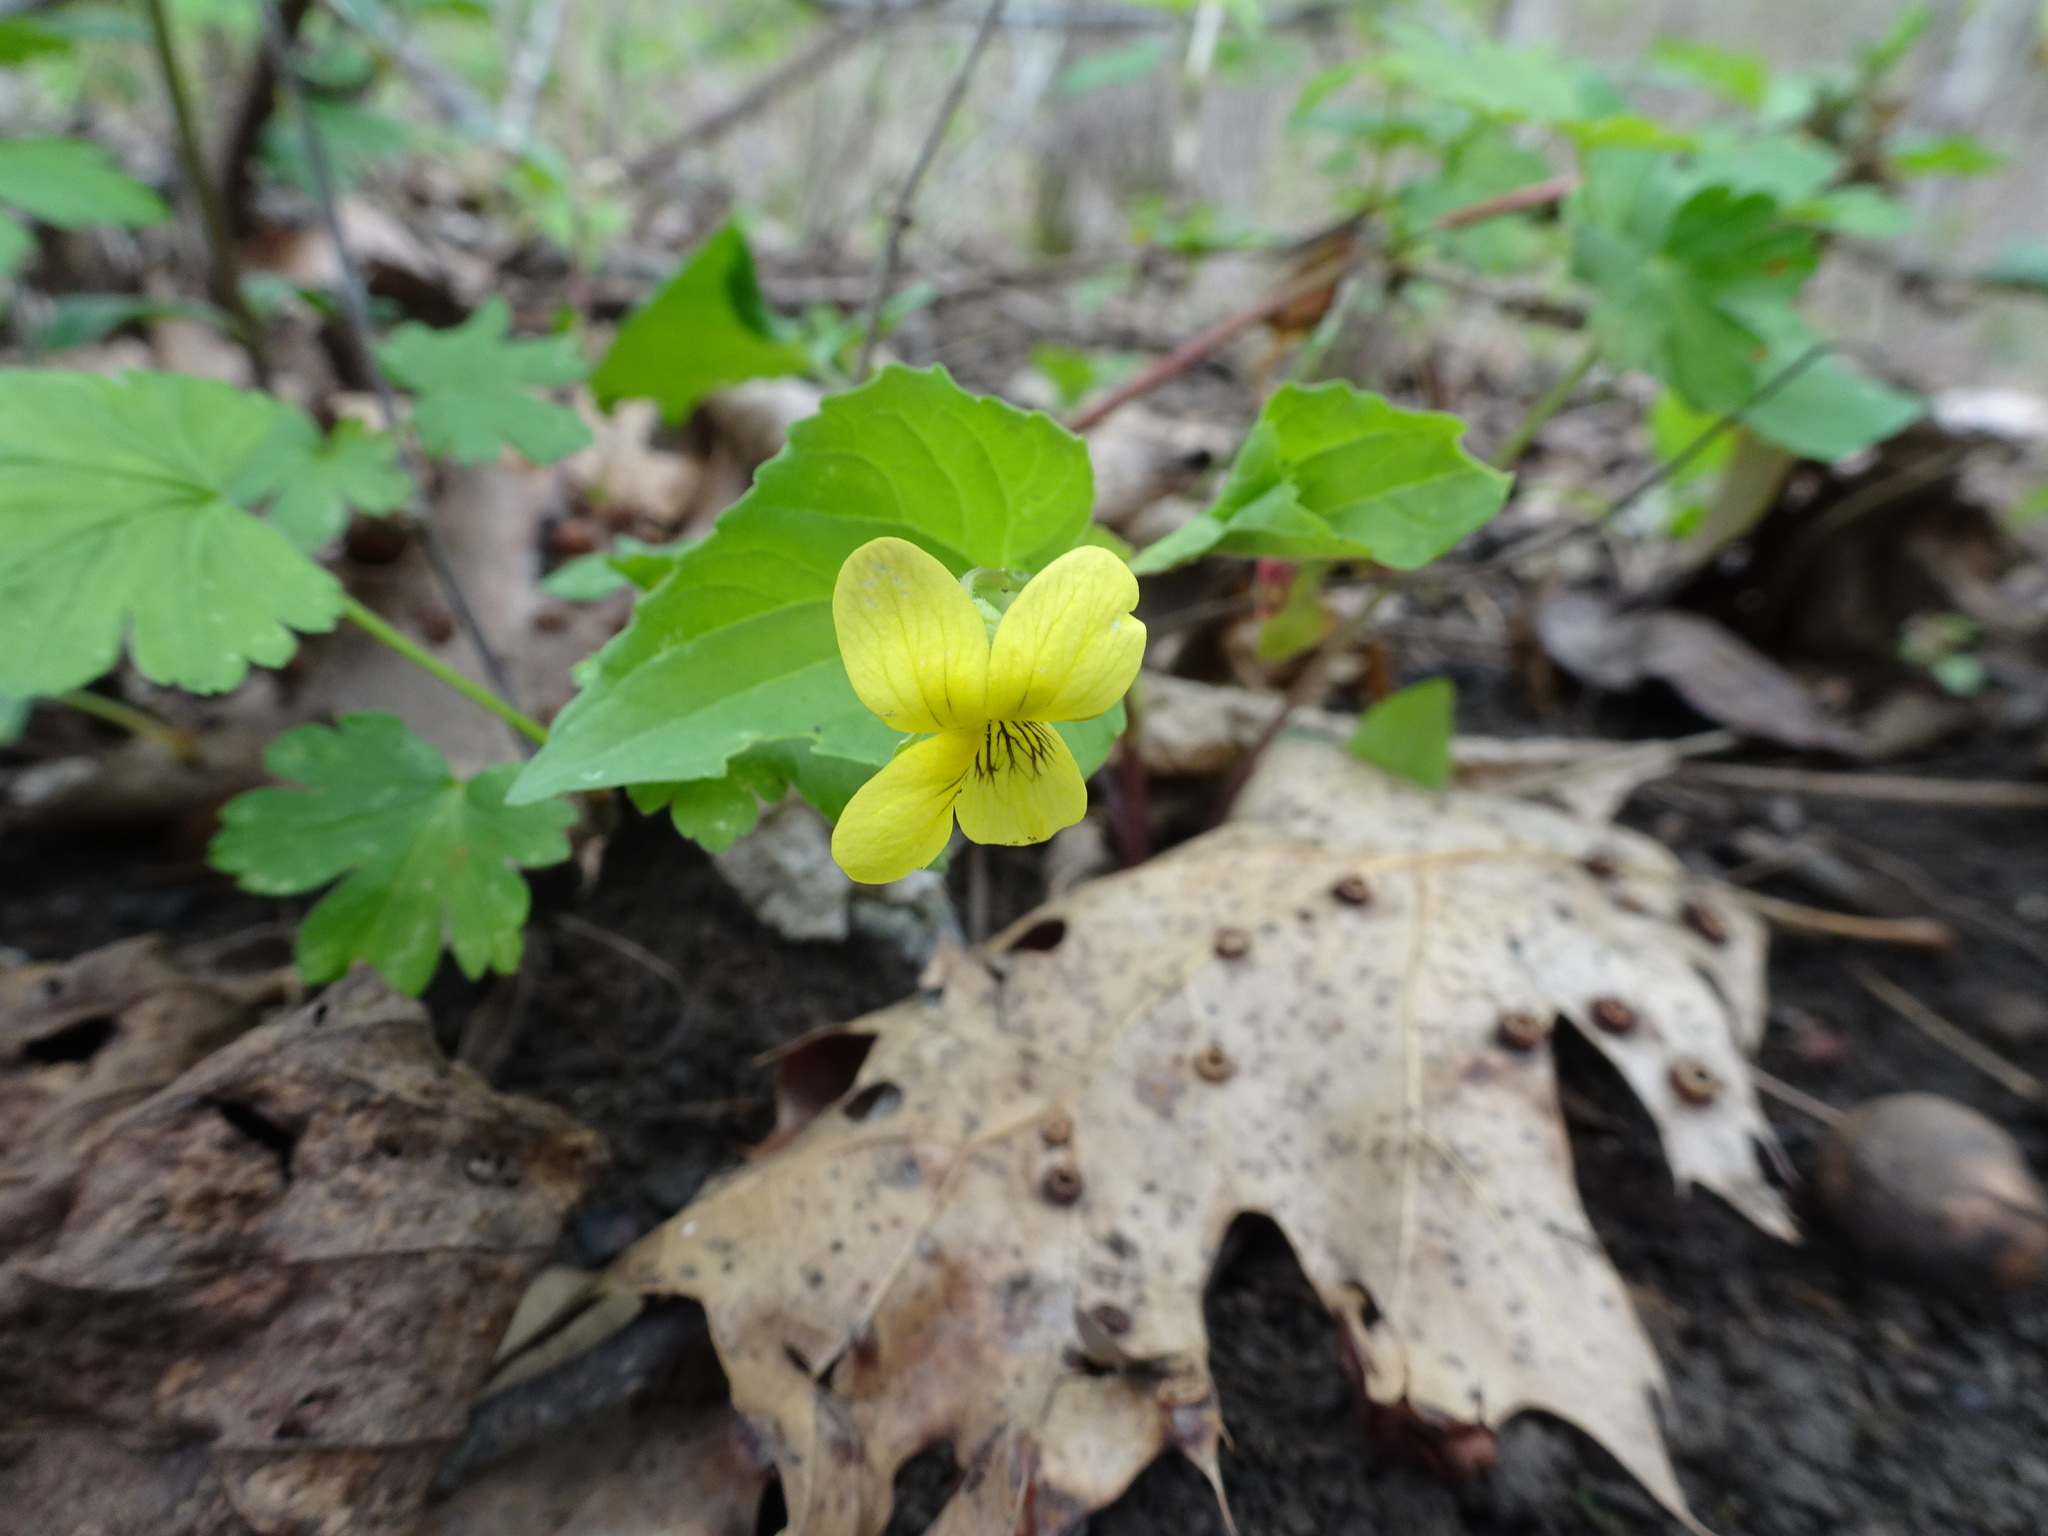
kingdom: Plantae
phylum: Tracheophyta
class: Magnoliopsida
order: Malpighiales
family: Violaceae
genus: Viola
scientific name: Viola eriocarpa
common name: Smooth yellow violet
